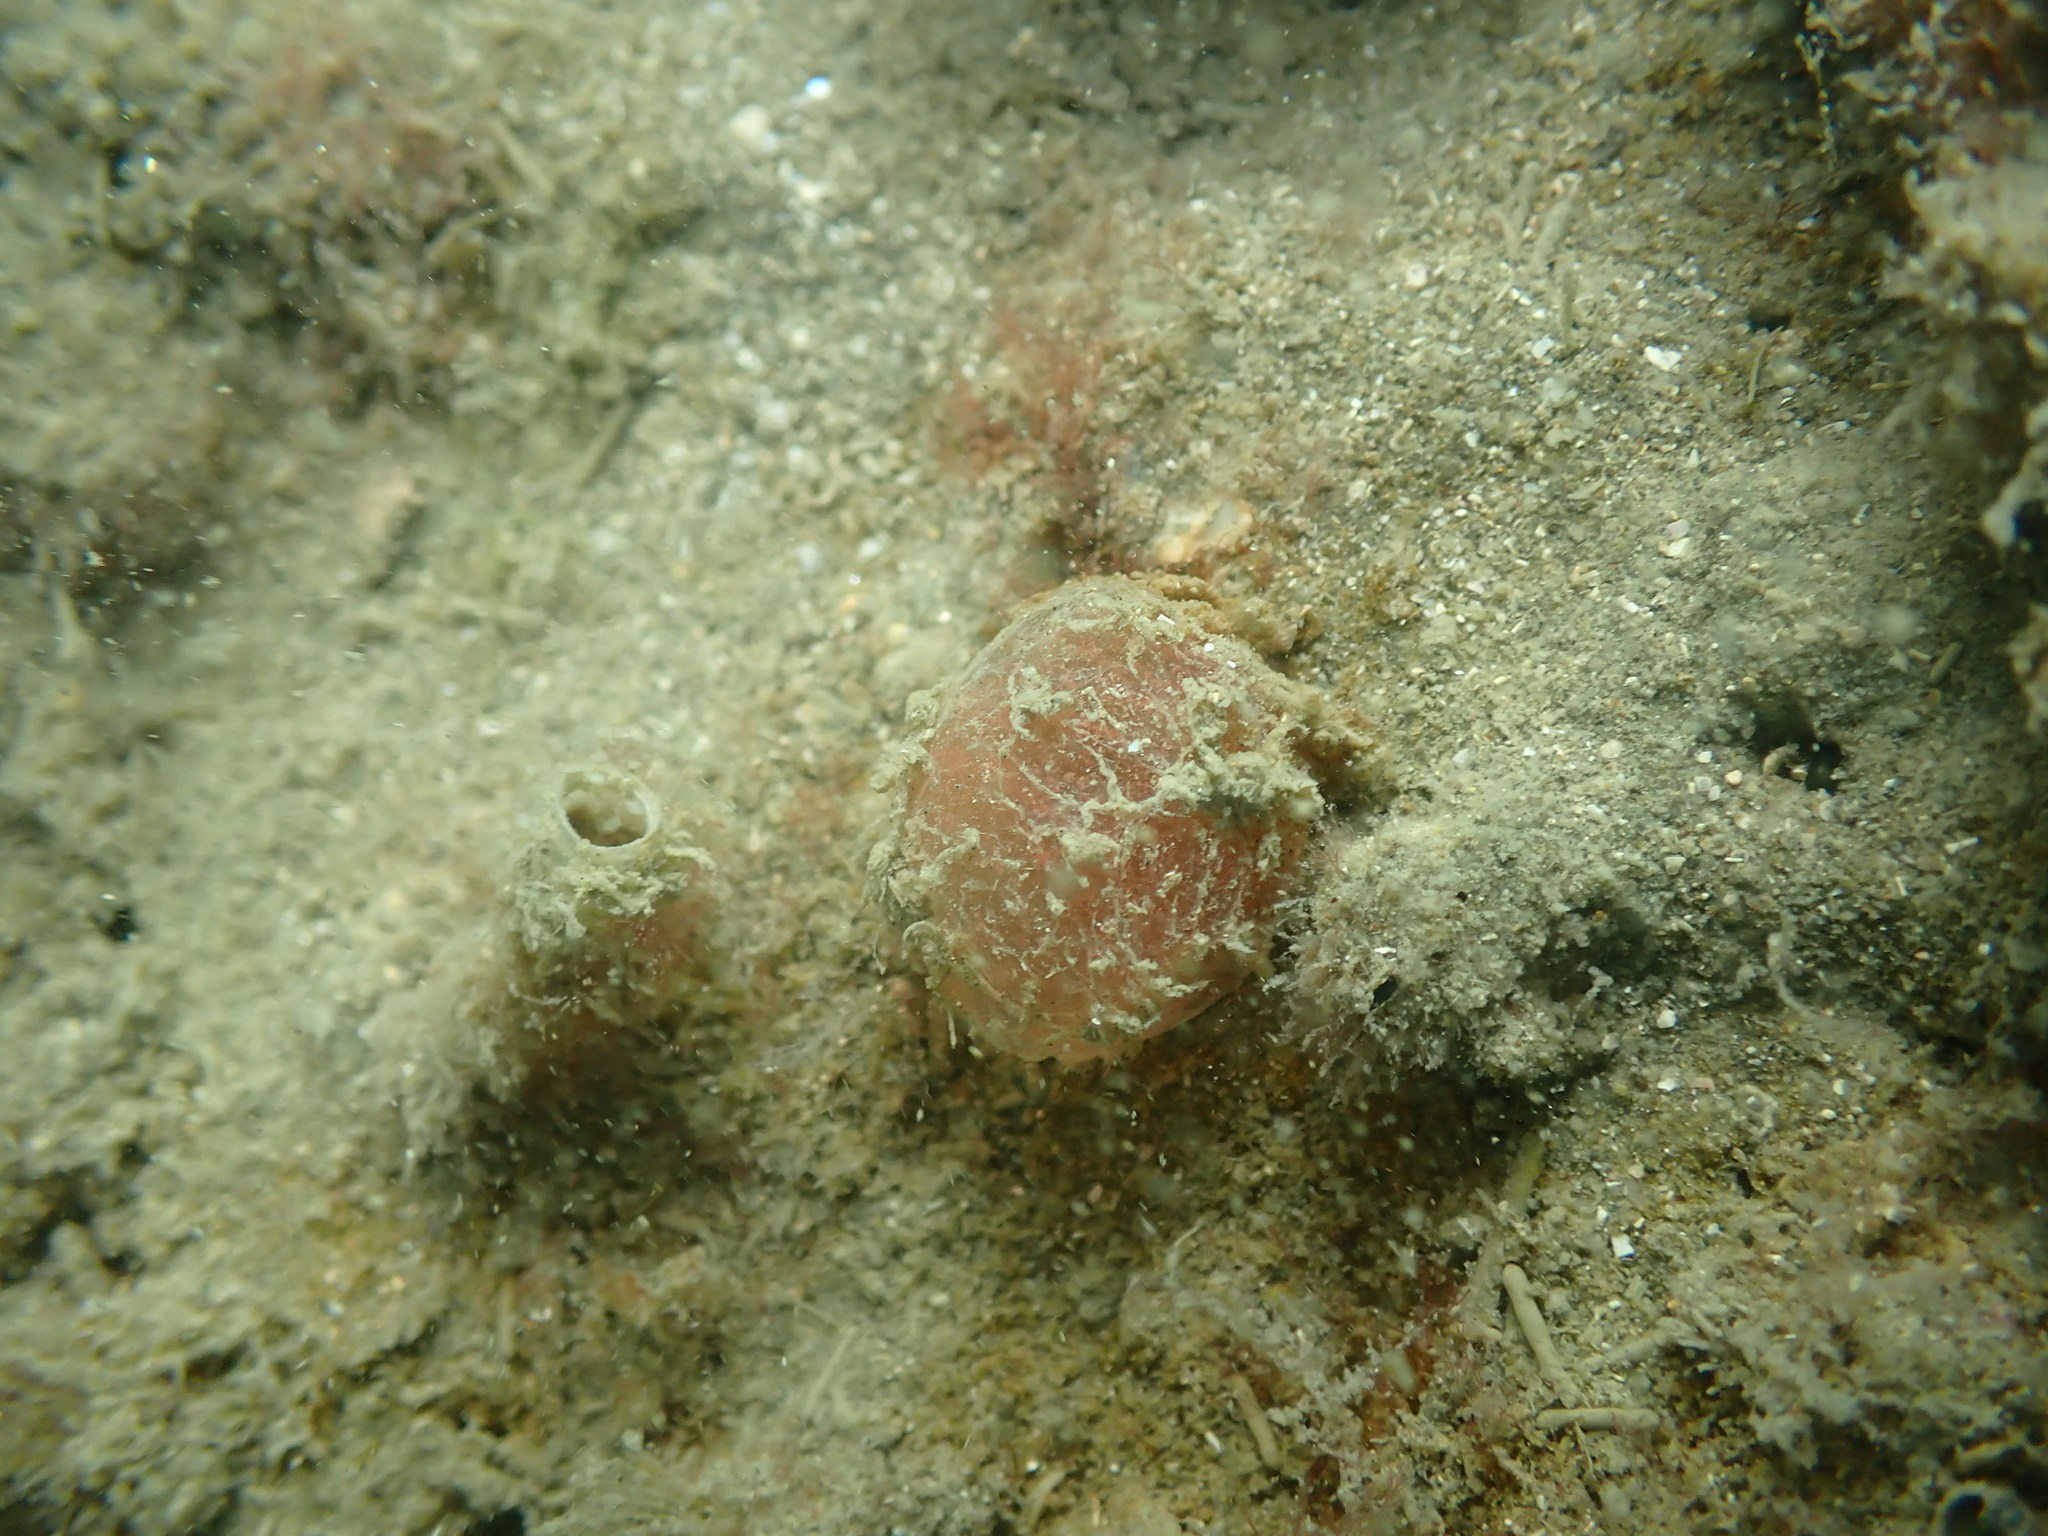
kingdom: Animalia
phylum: Mollusca
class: Gastropoda
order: Cephalaspidea
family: Bullidae
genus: Bulla
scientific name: Bulla quoyii
